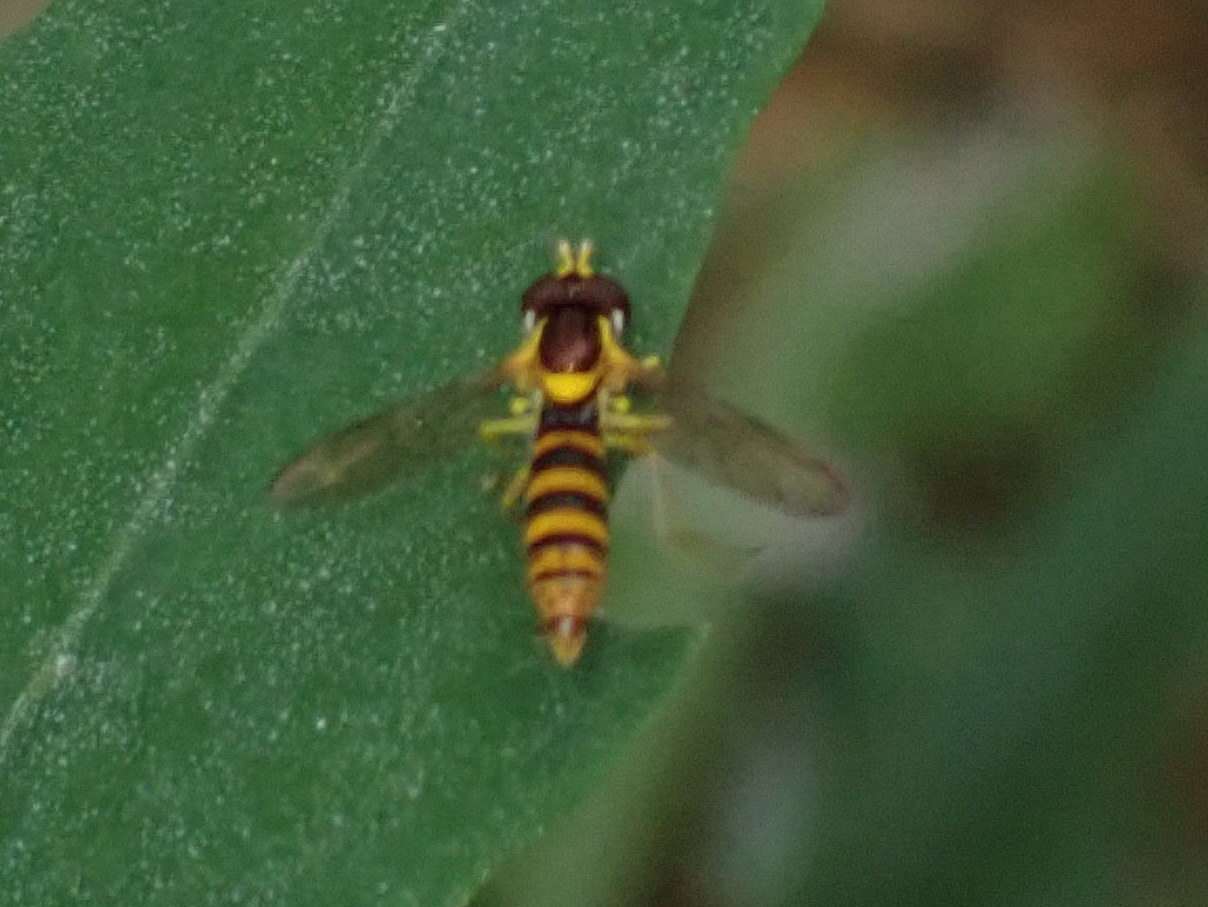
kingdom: Animalia
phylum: Arthropoda
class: Insecta
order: Diptera
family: Syrphidae
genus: Sphaerophoria
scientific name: Sphaerophoria
